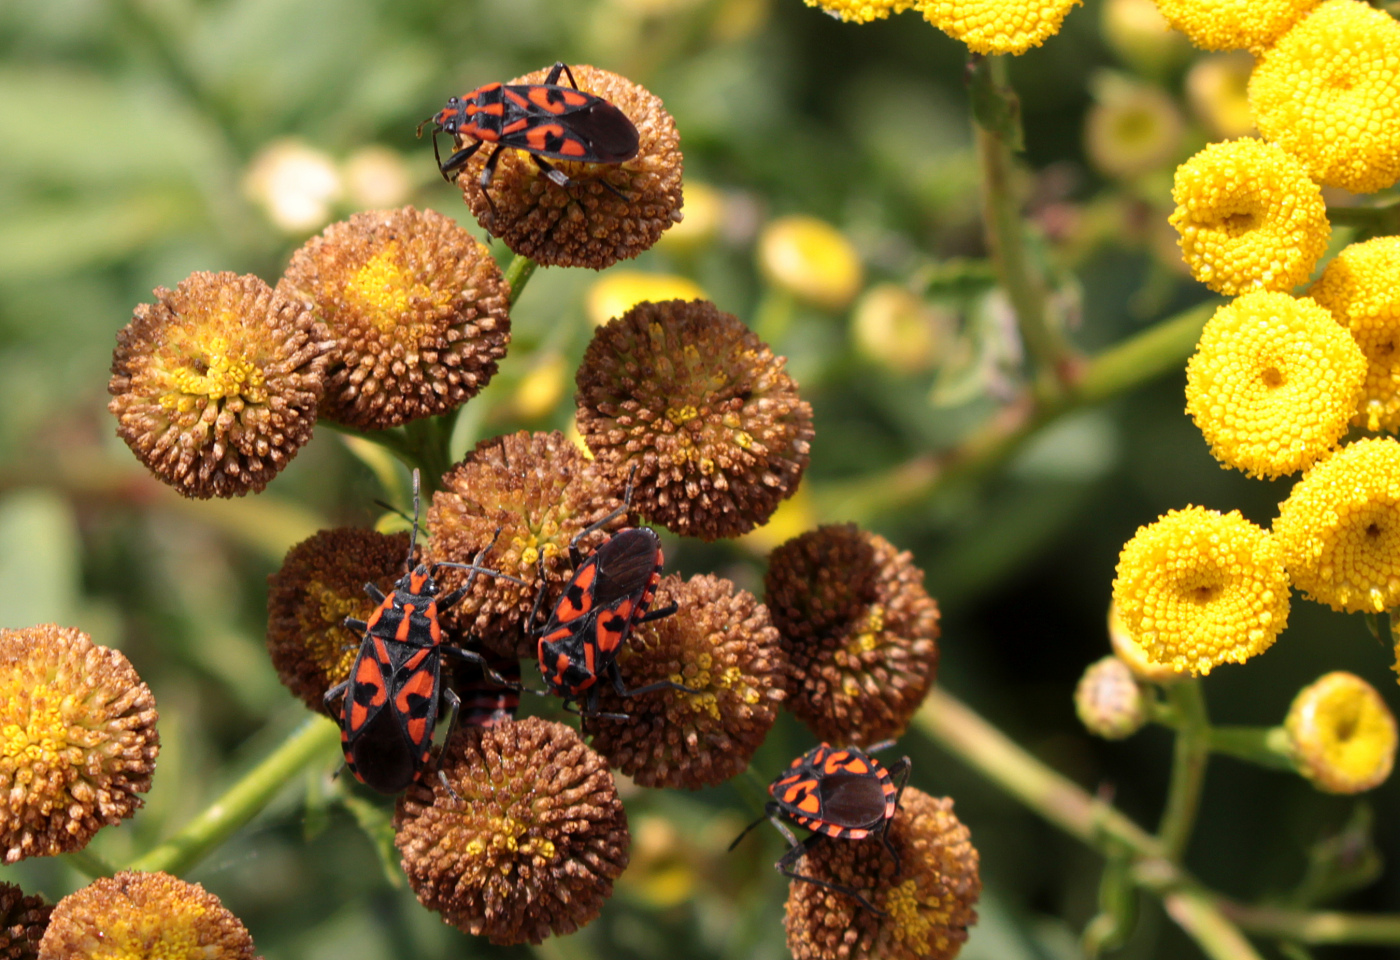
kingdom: Animalia
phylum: Arthropoda
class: Insecta
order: Hemiptera
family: Lygaeidae
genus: Spilostethus
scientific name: Spilostethus saxatilis
